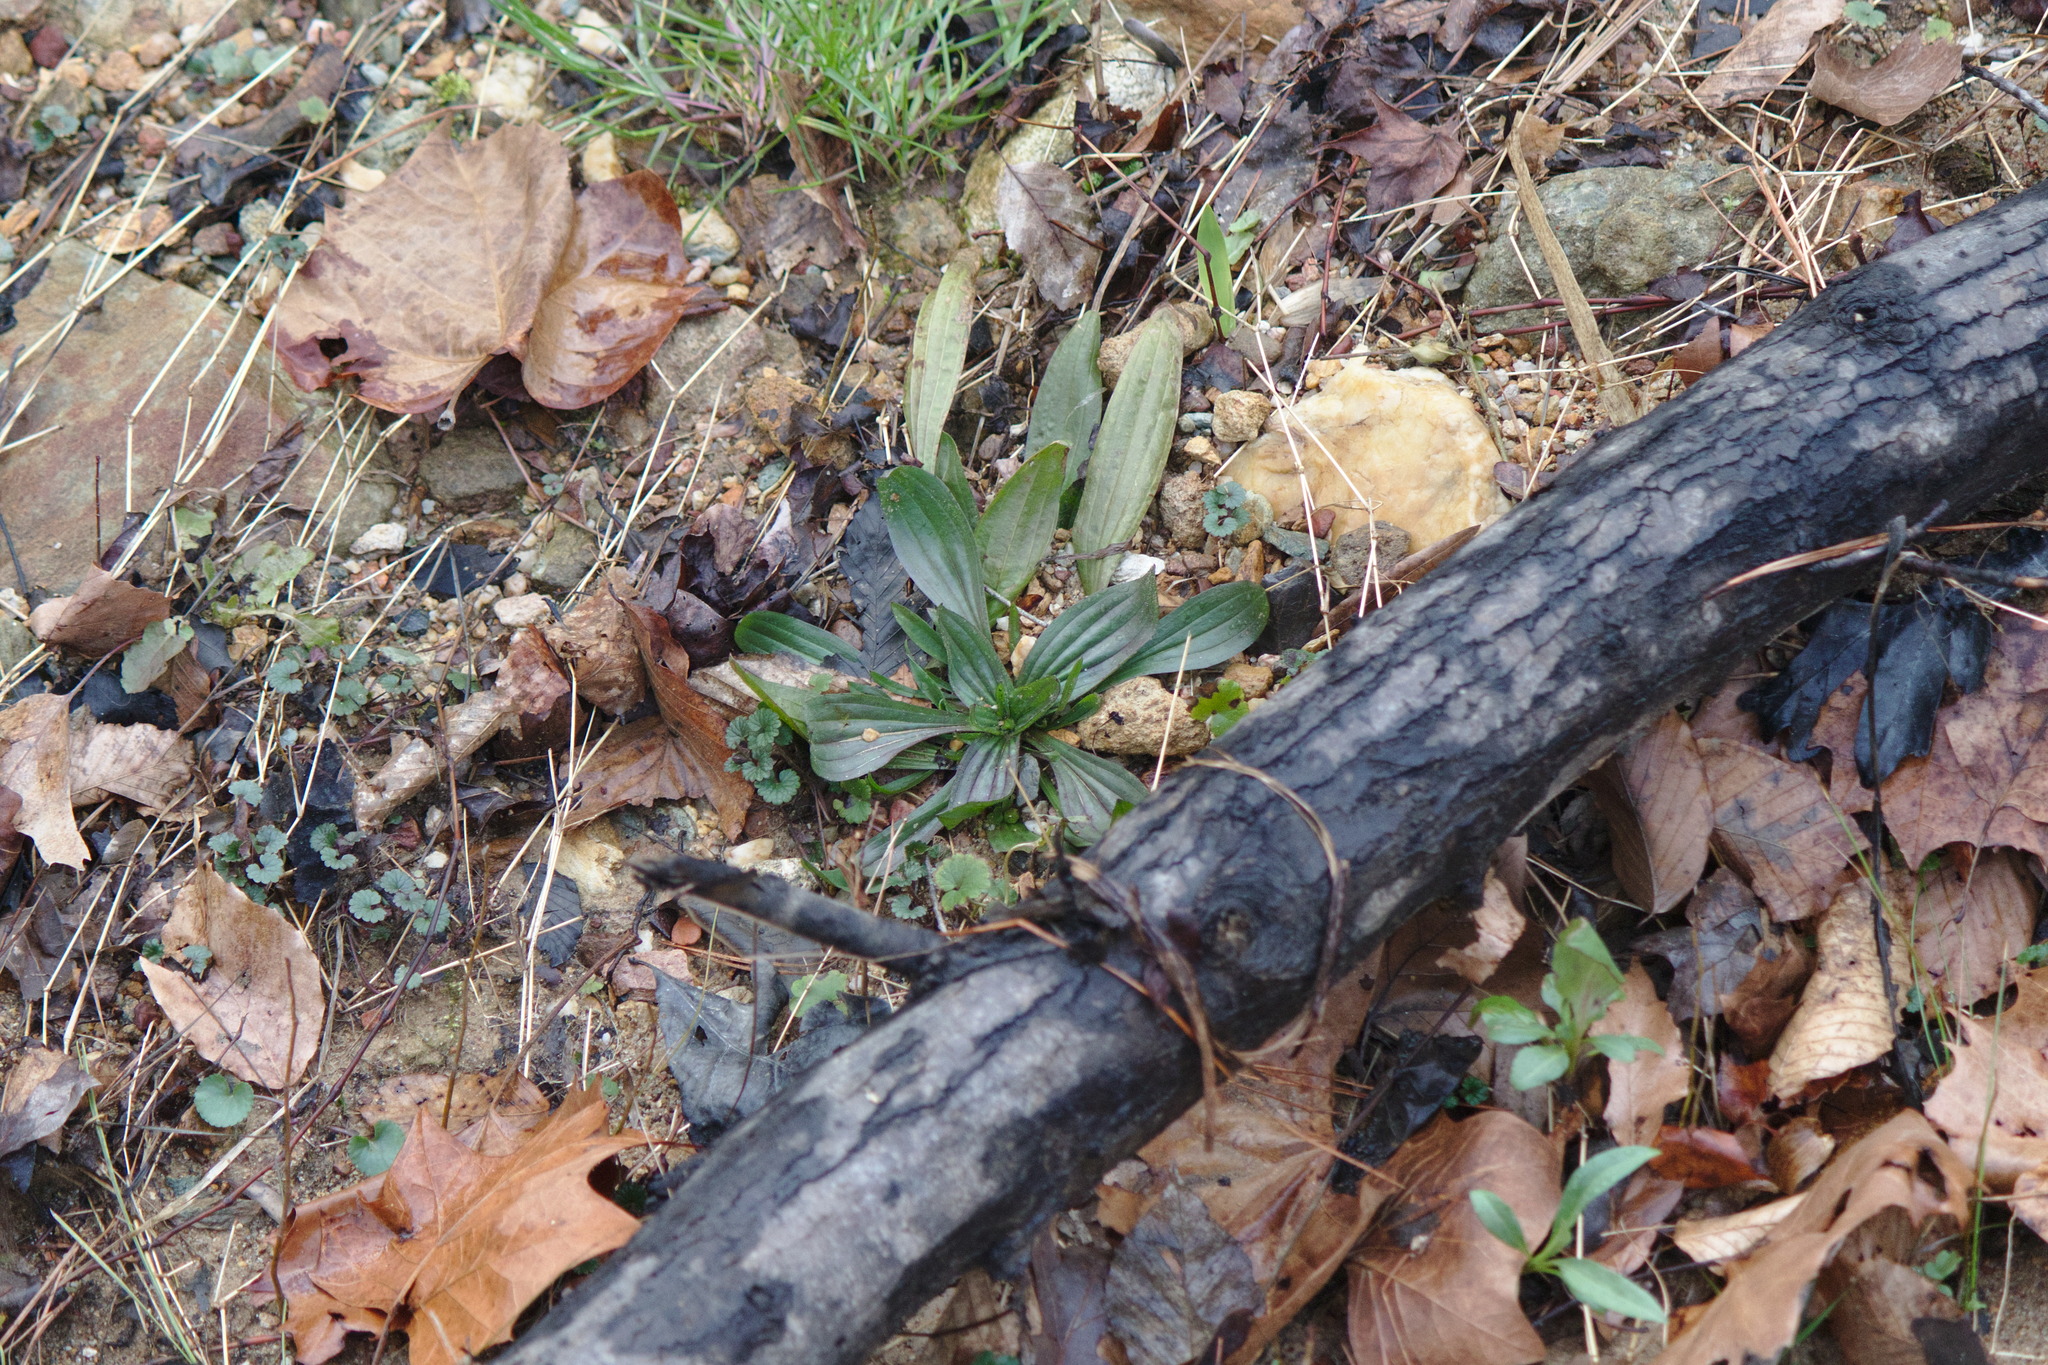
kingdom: Plantae
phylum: Tracheophyta
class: Magnoliopsida
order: Lamiales
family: Plantaginaceae
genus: Plantago
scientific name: Plantago lanceolata
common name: Ribwort plantain
